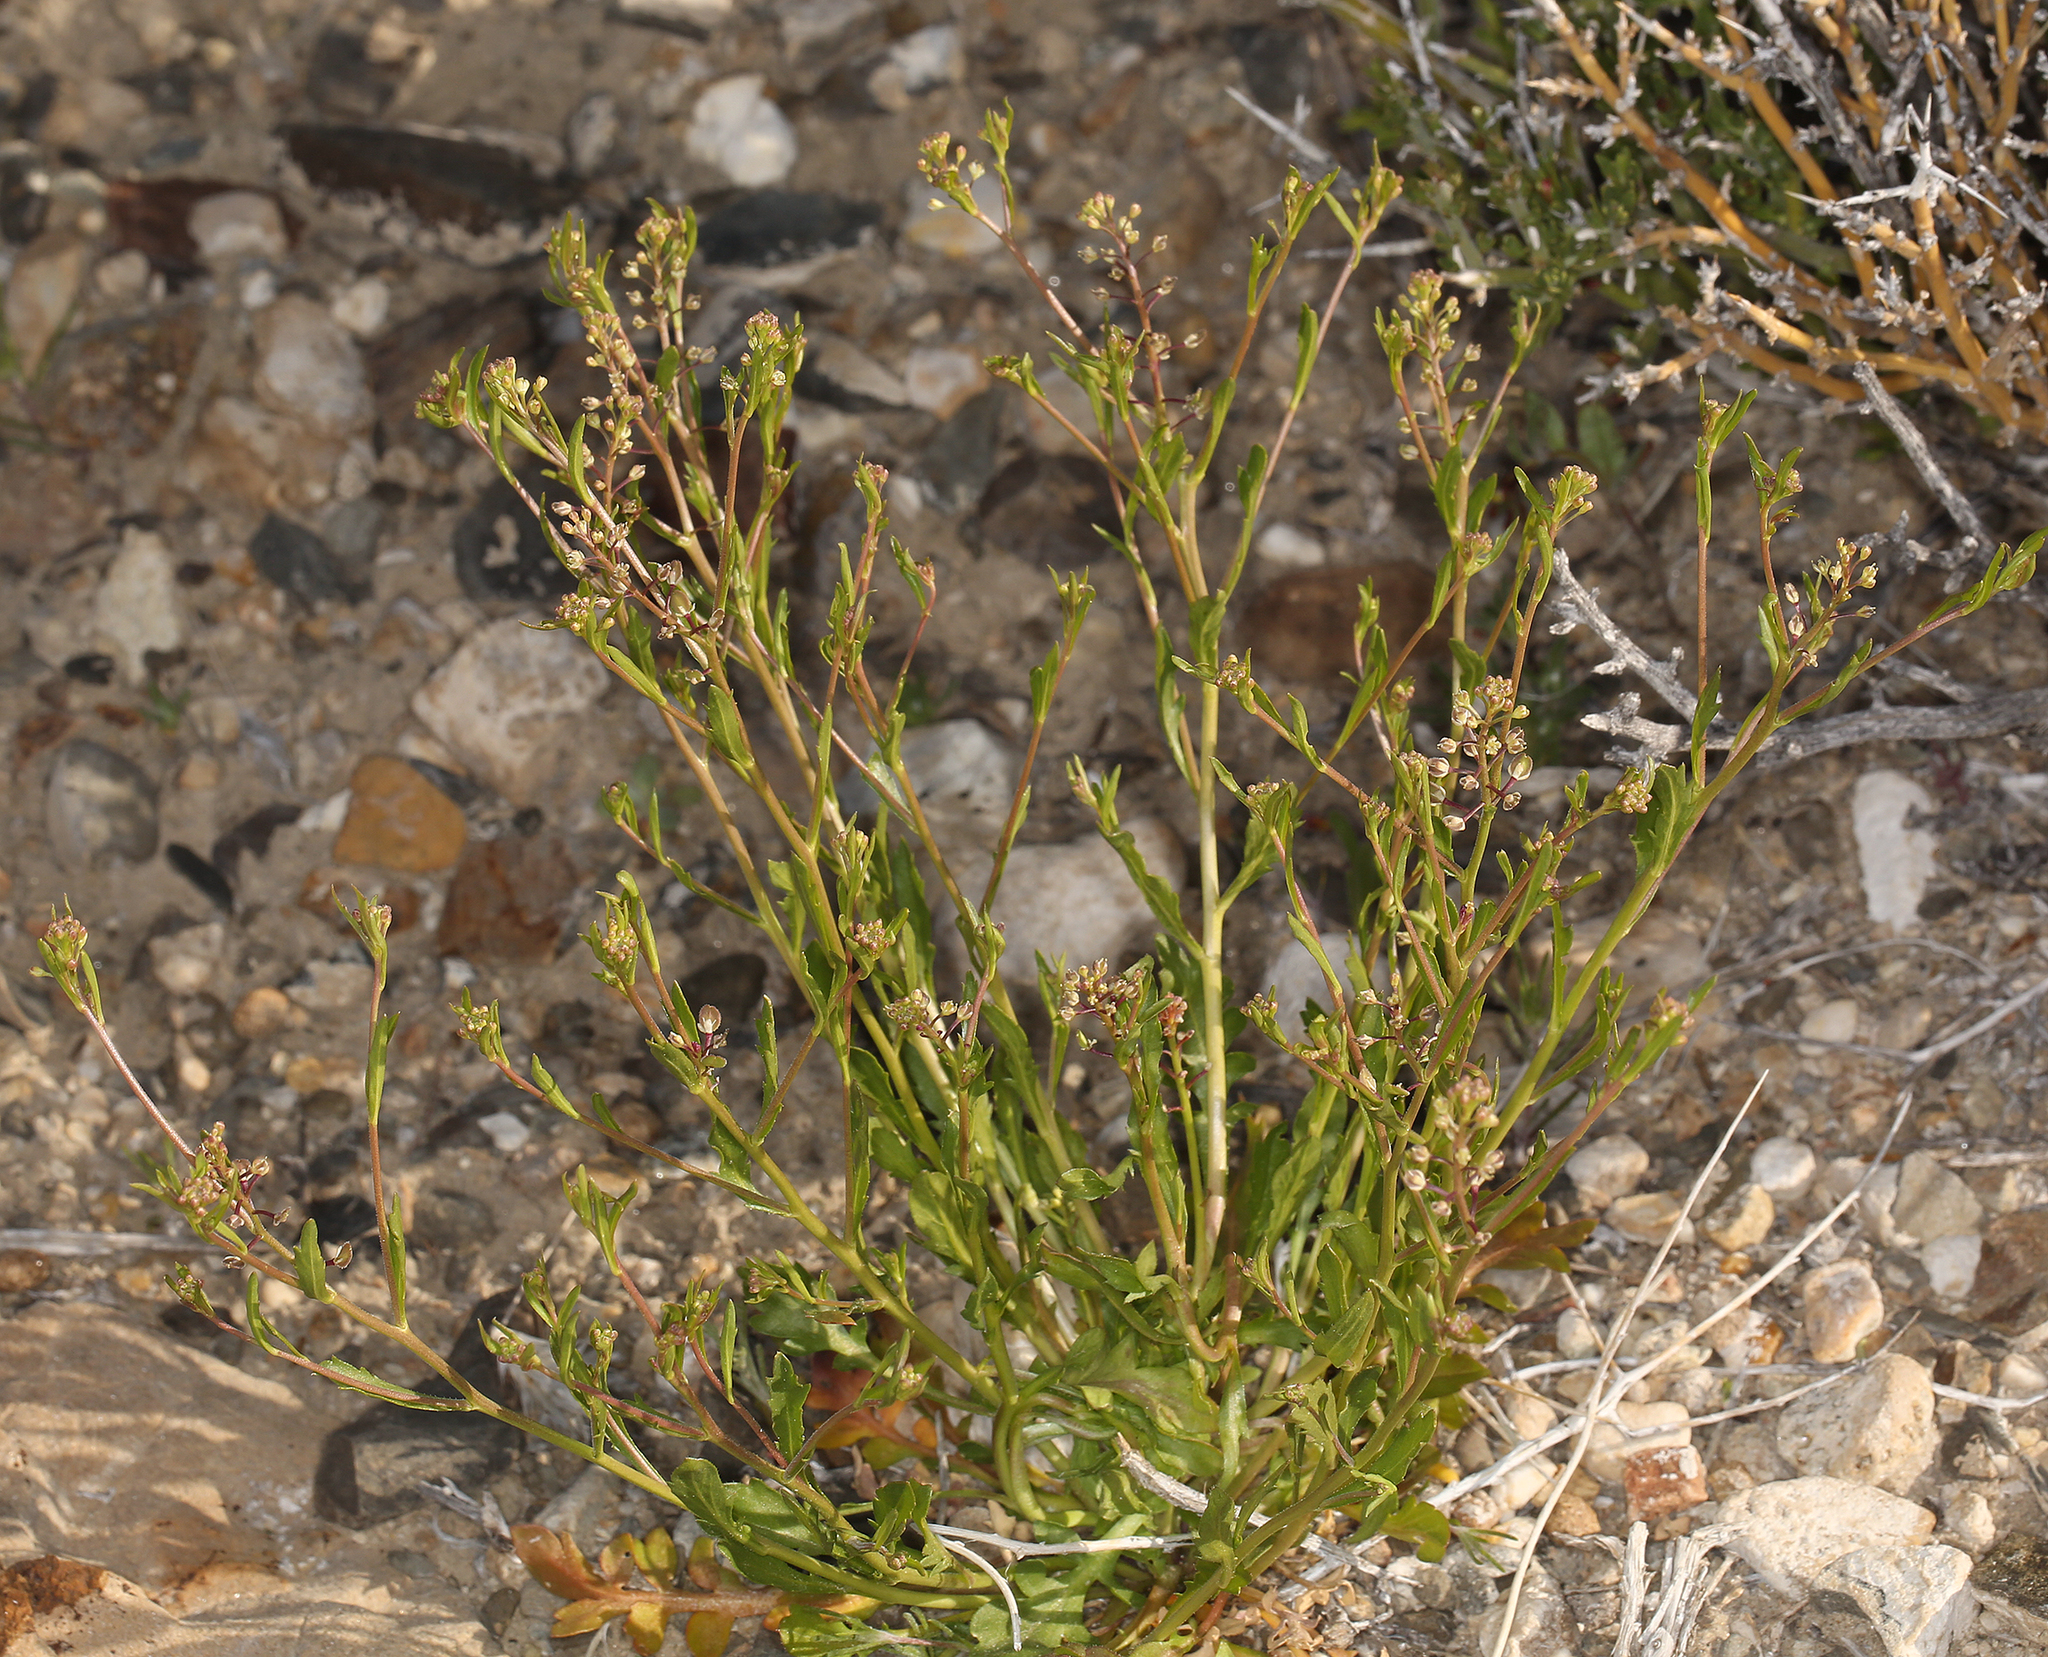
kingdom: Plantae
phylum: Tracheophyta
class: Magnoliopsida
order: Brassicales
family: Brassicaceae
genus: Lepidium
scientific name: Lepidium lasiocarpum
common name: Hairy-pod pepperwort
